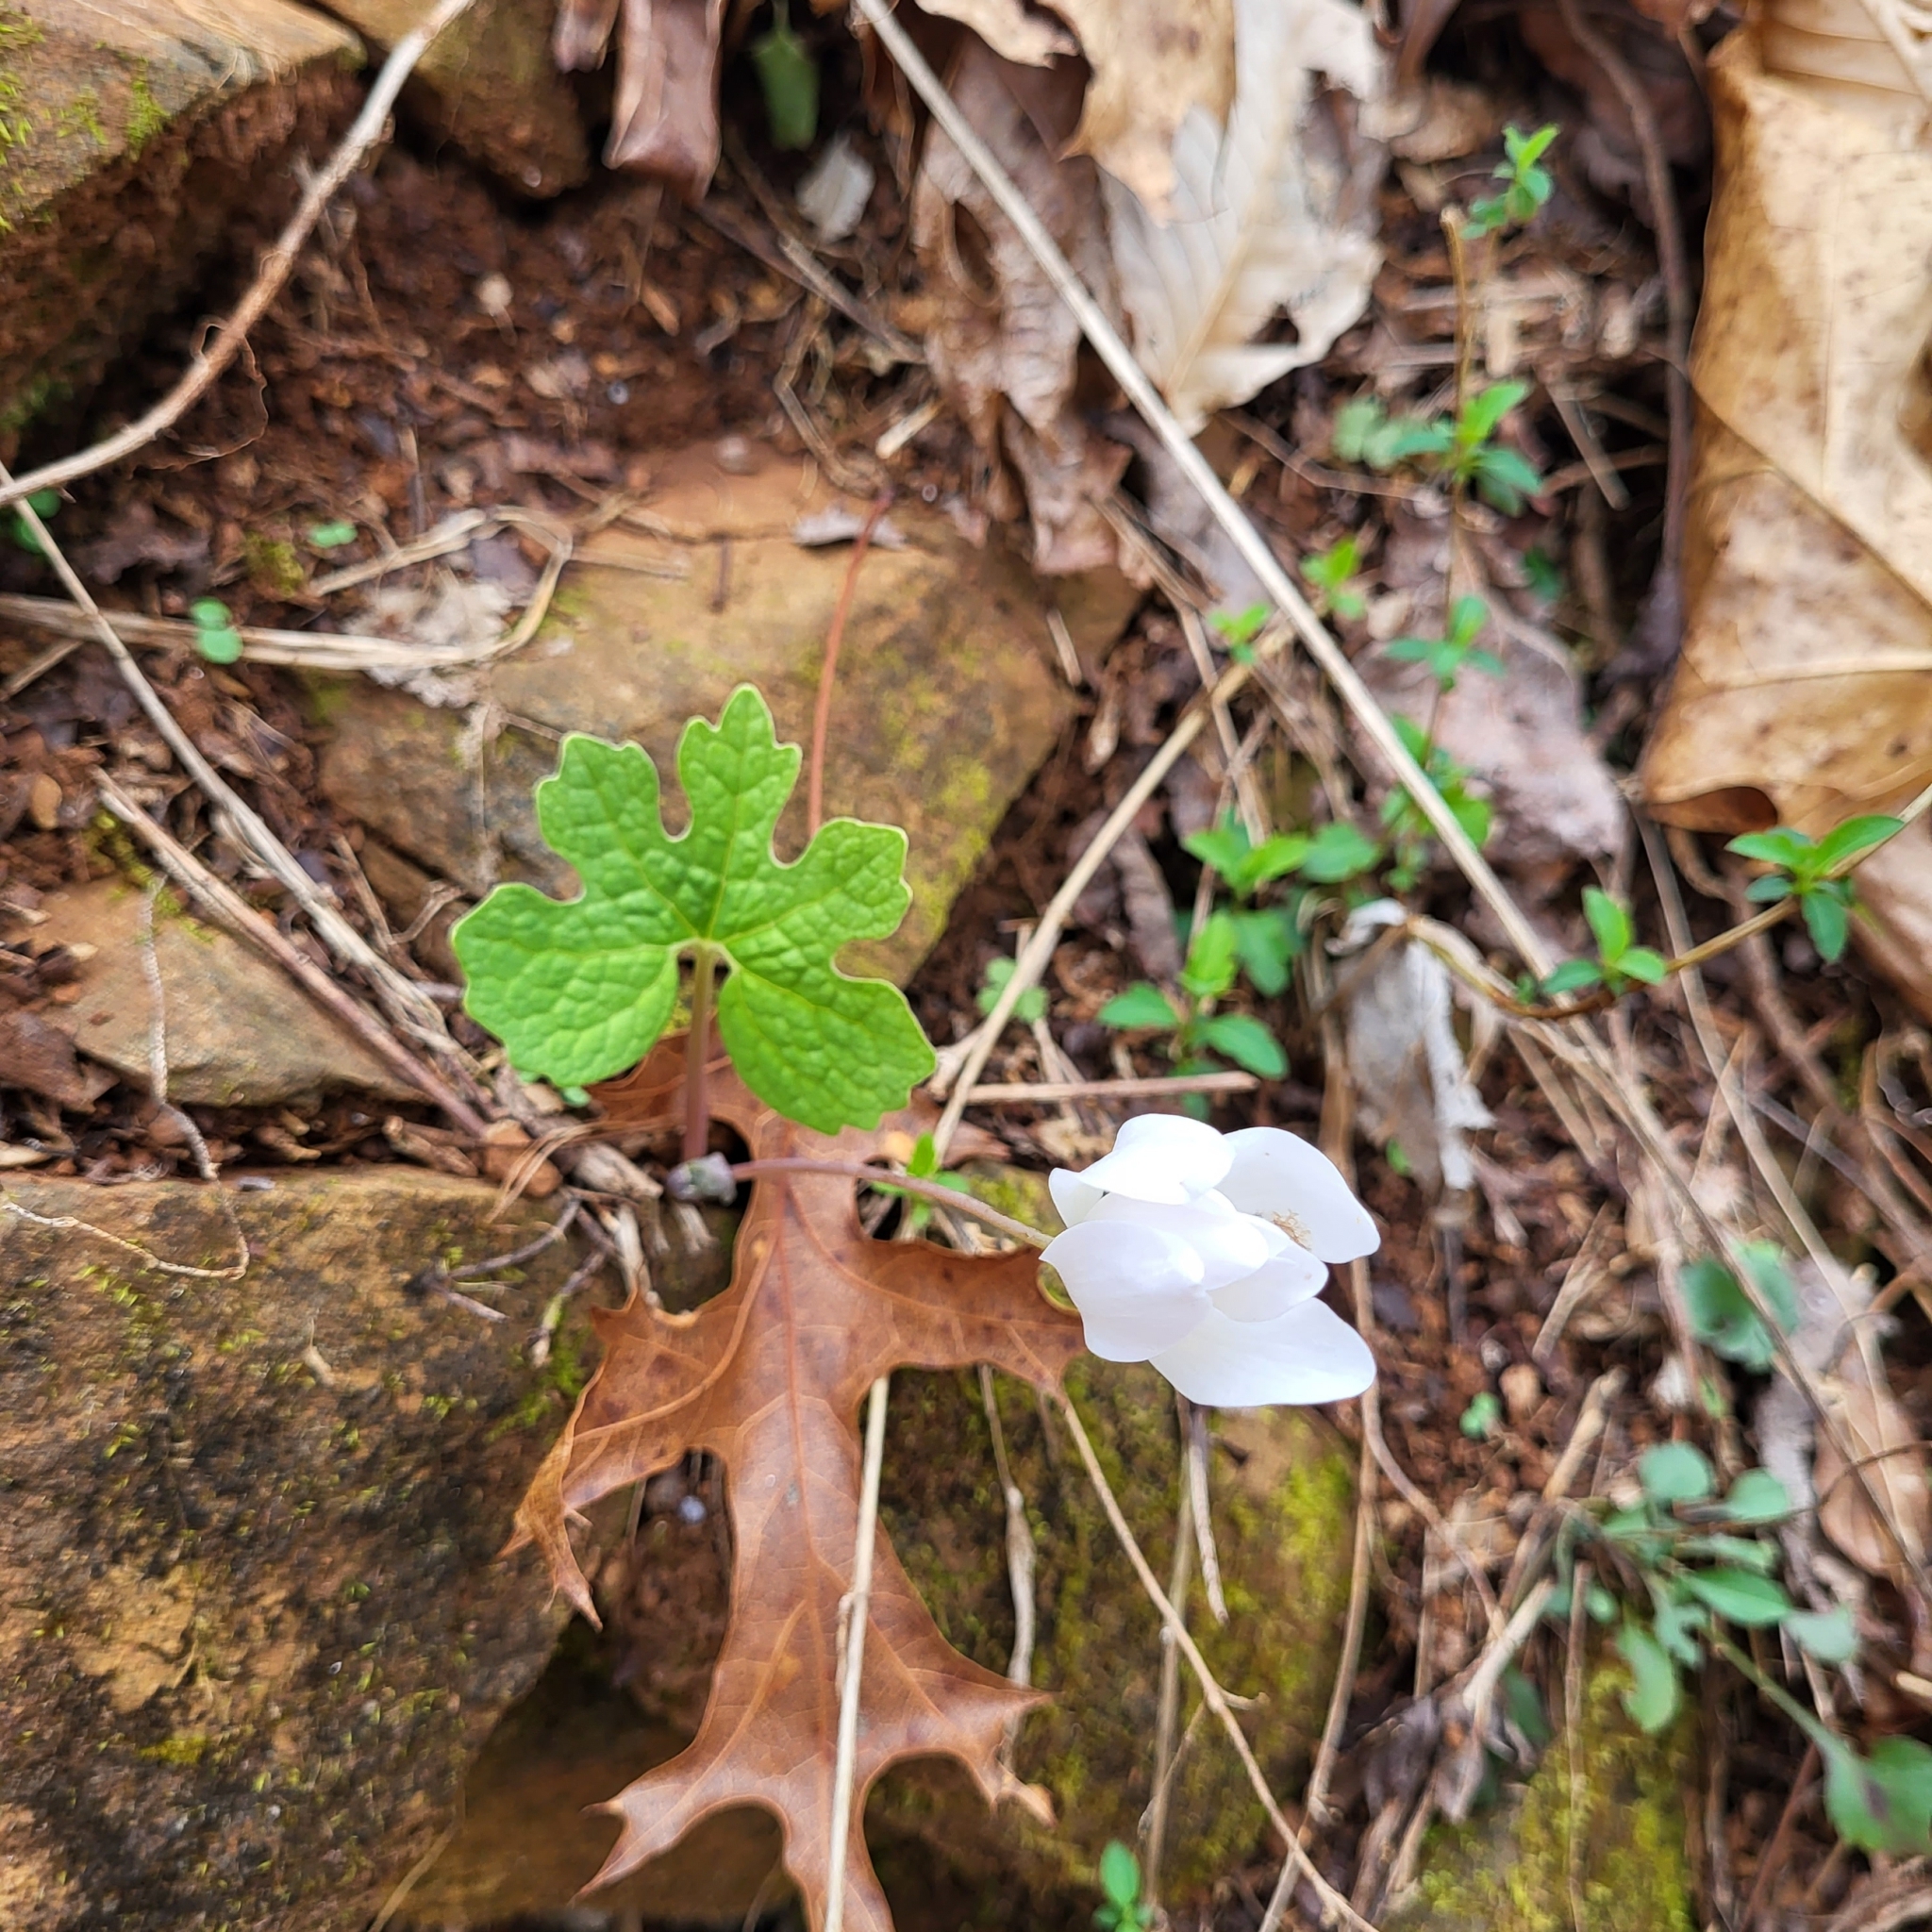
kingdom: Plantae
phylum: Tracheophyta
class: Magnoliopsida
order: Ranunculales
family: Papaveraceae
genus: Sanguinaria
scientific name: Sanguinaria canadensis
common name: Bloodroot
